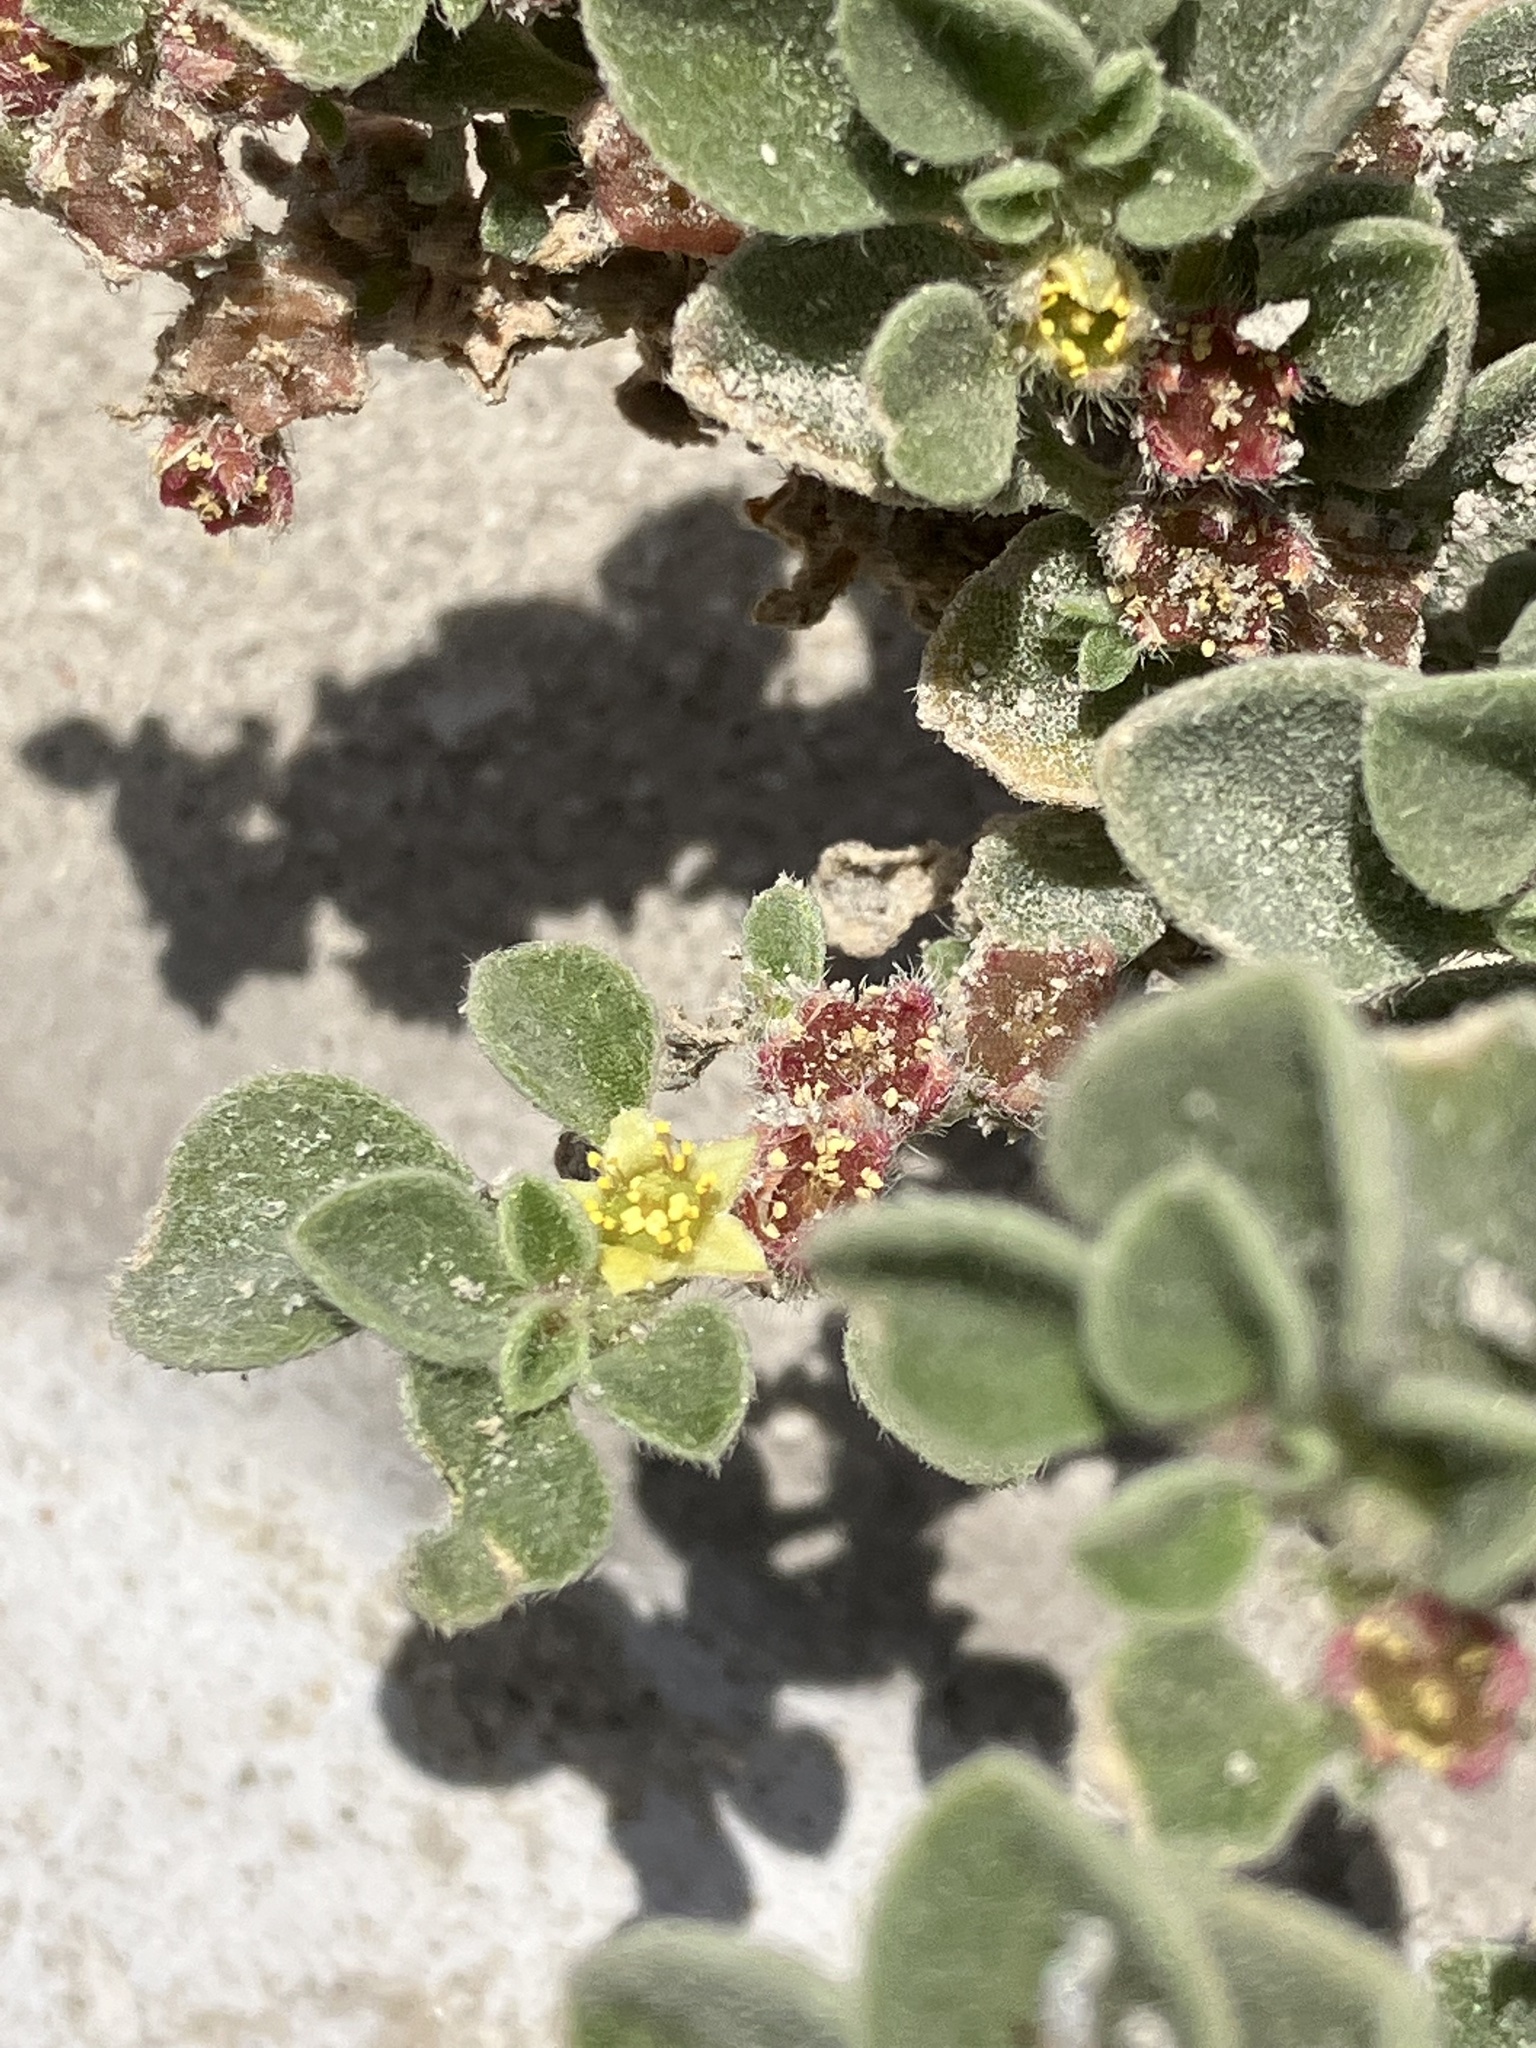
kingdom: Plantae
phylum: Tracheophyta
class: Magnoliopsida
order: Caryophyllales
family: Aizoaceae
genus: Aizoon
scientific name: Aizoon canariense
